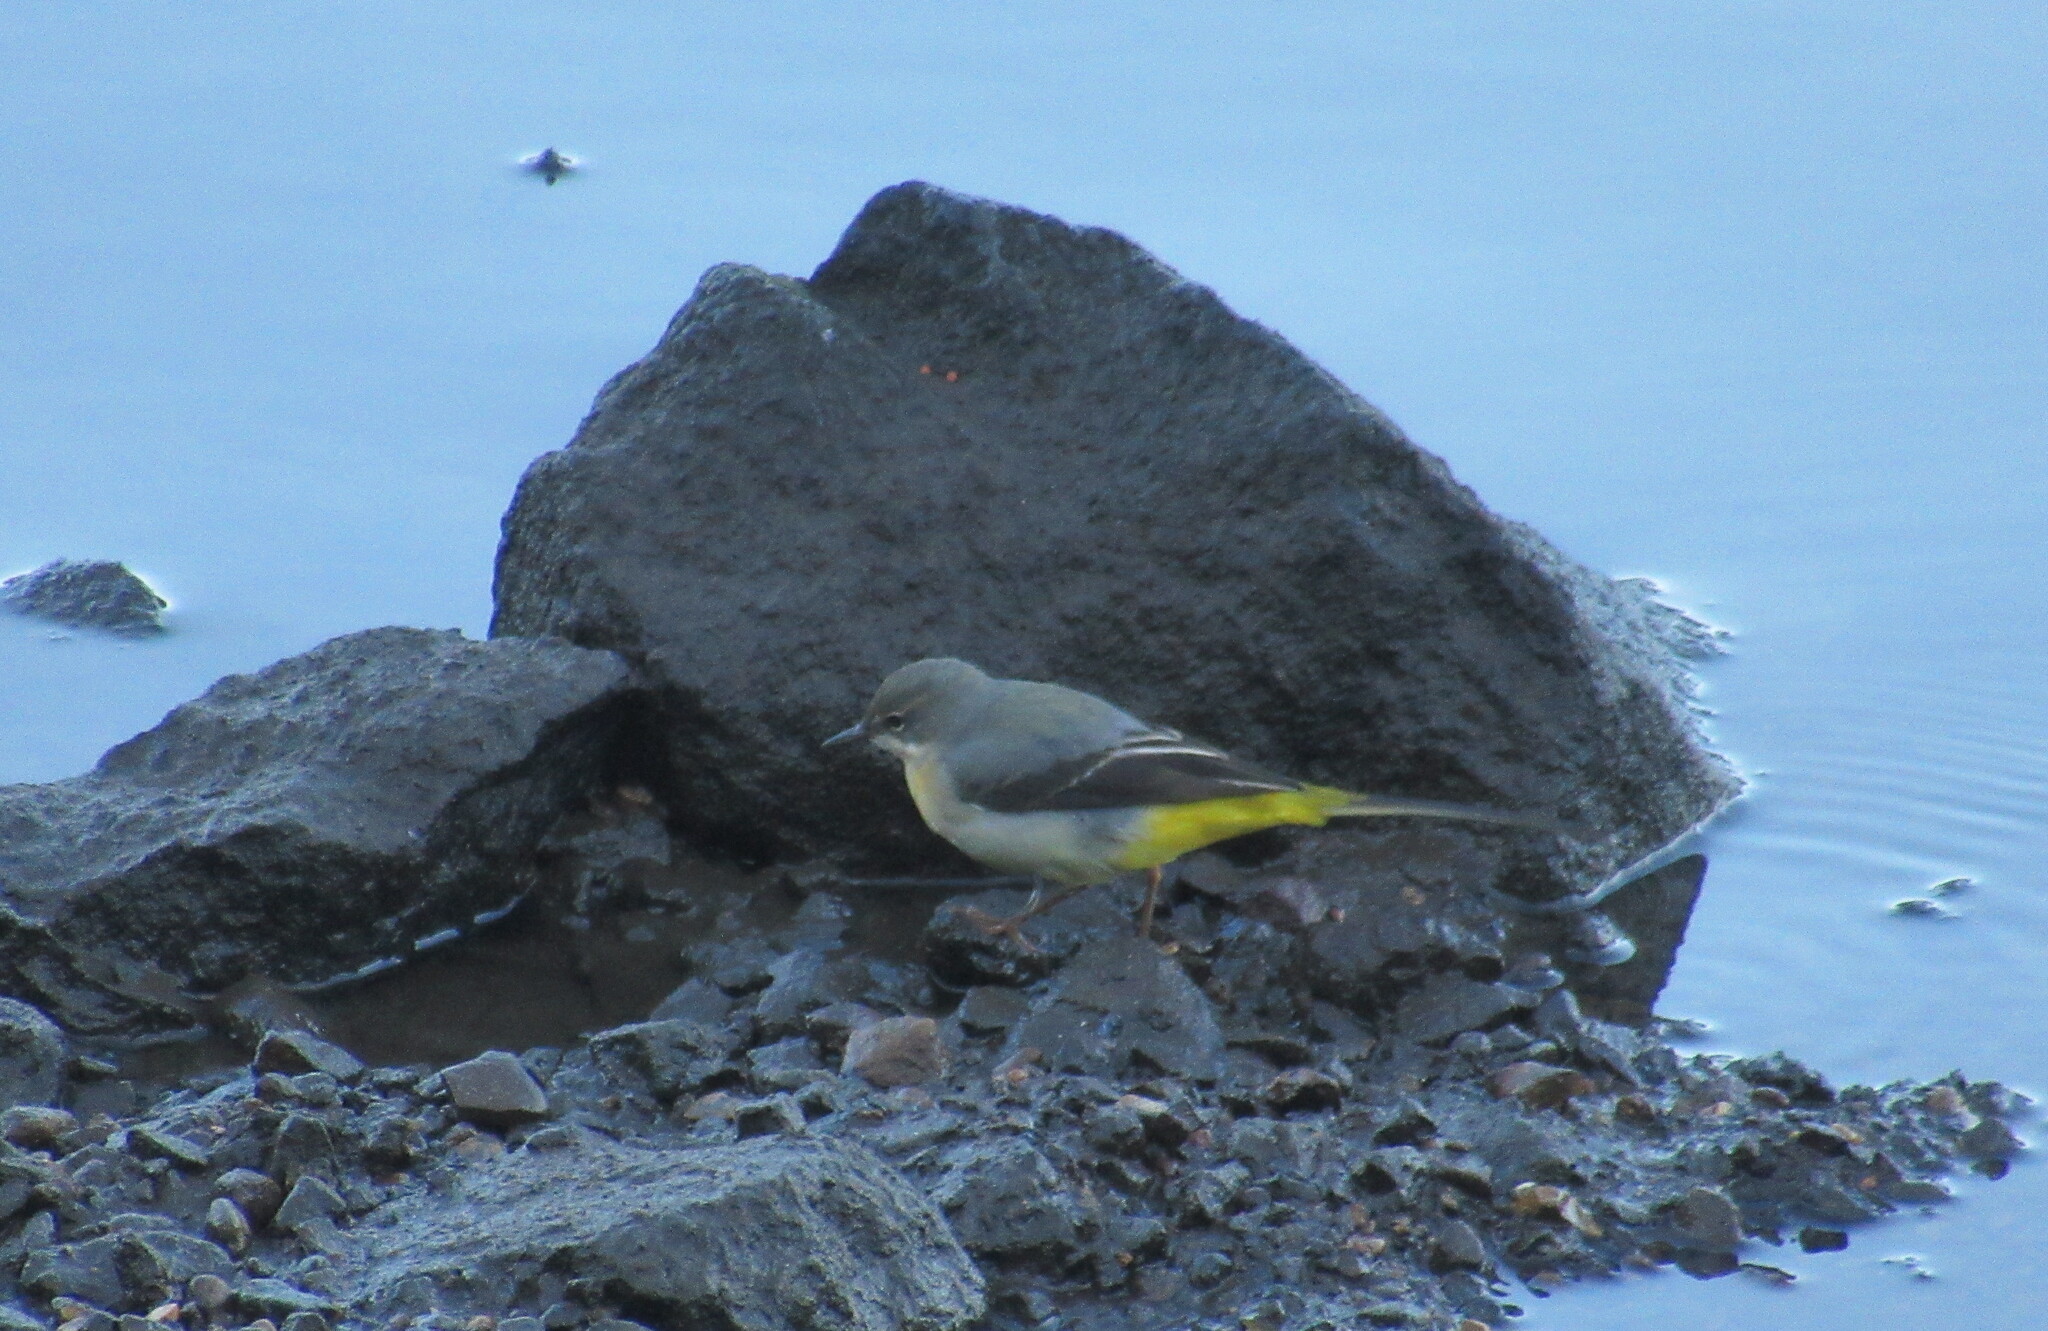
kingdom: Animalia
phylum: Chordata
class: Aves
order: Passeriformes
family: Motacillidae
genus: Motacilla
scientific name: Motacilla cinerea
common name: Grey wagtail
